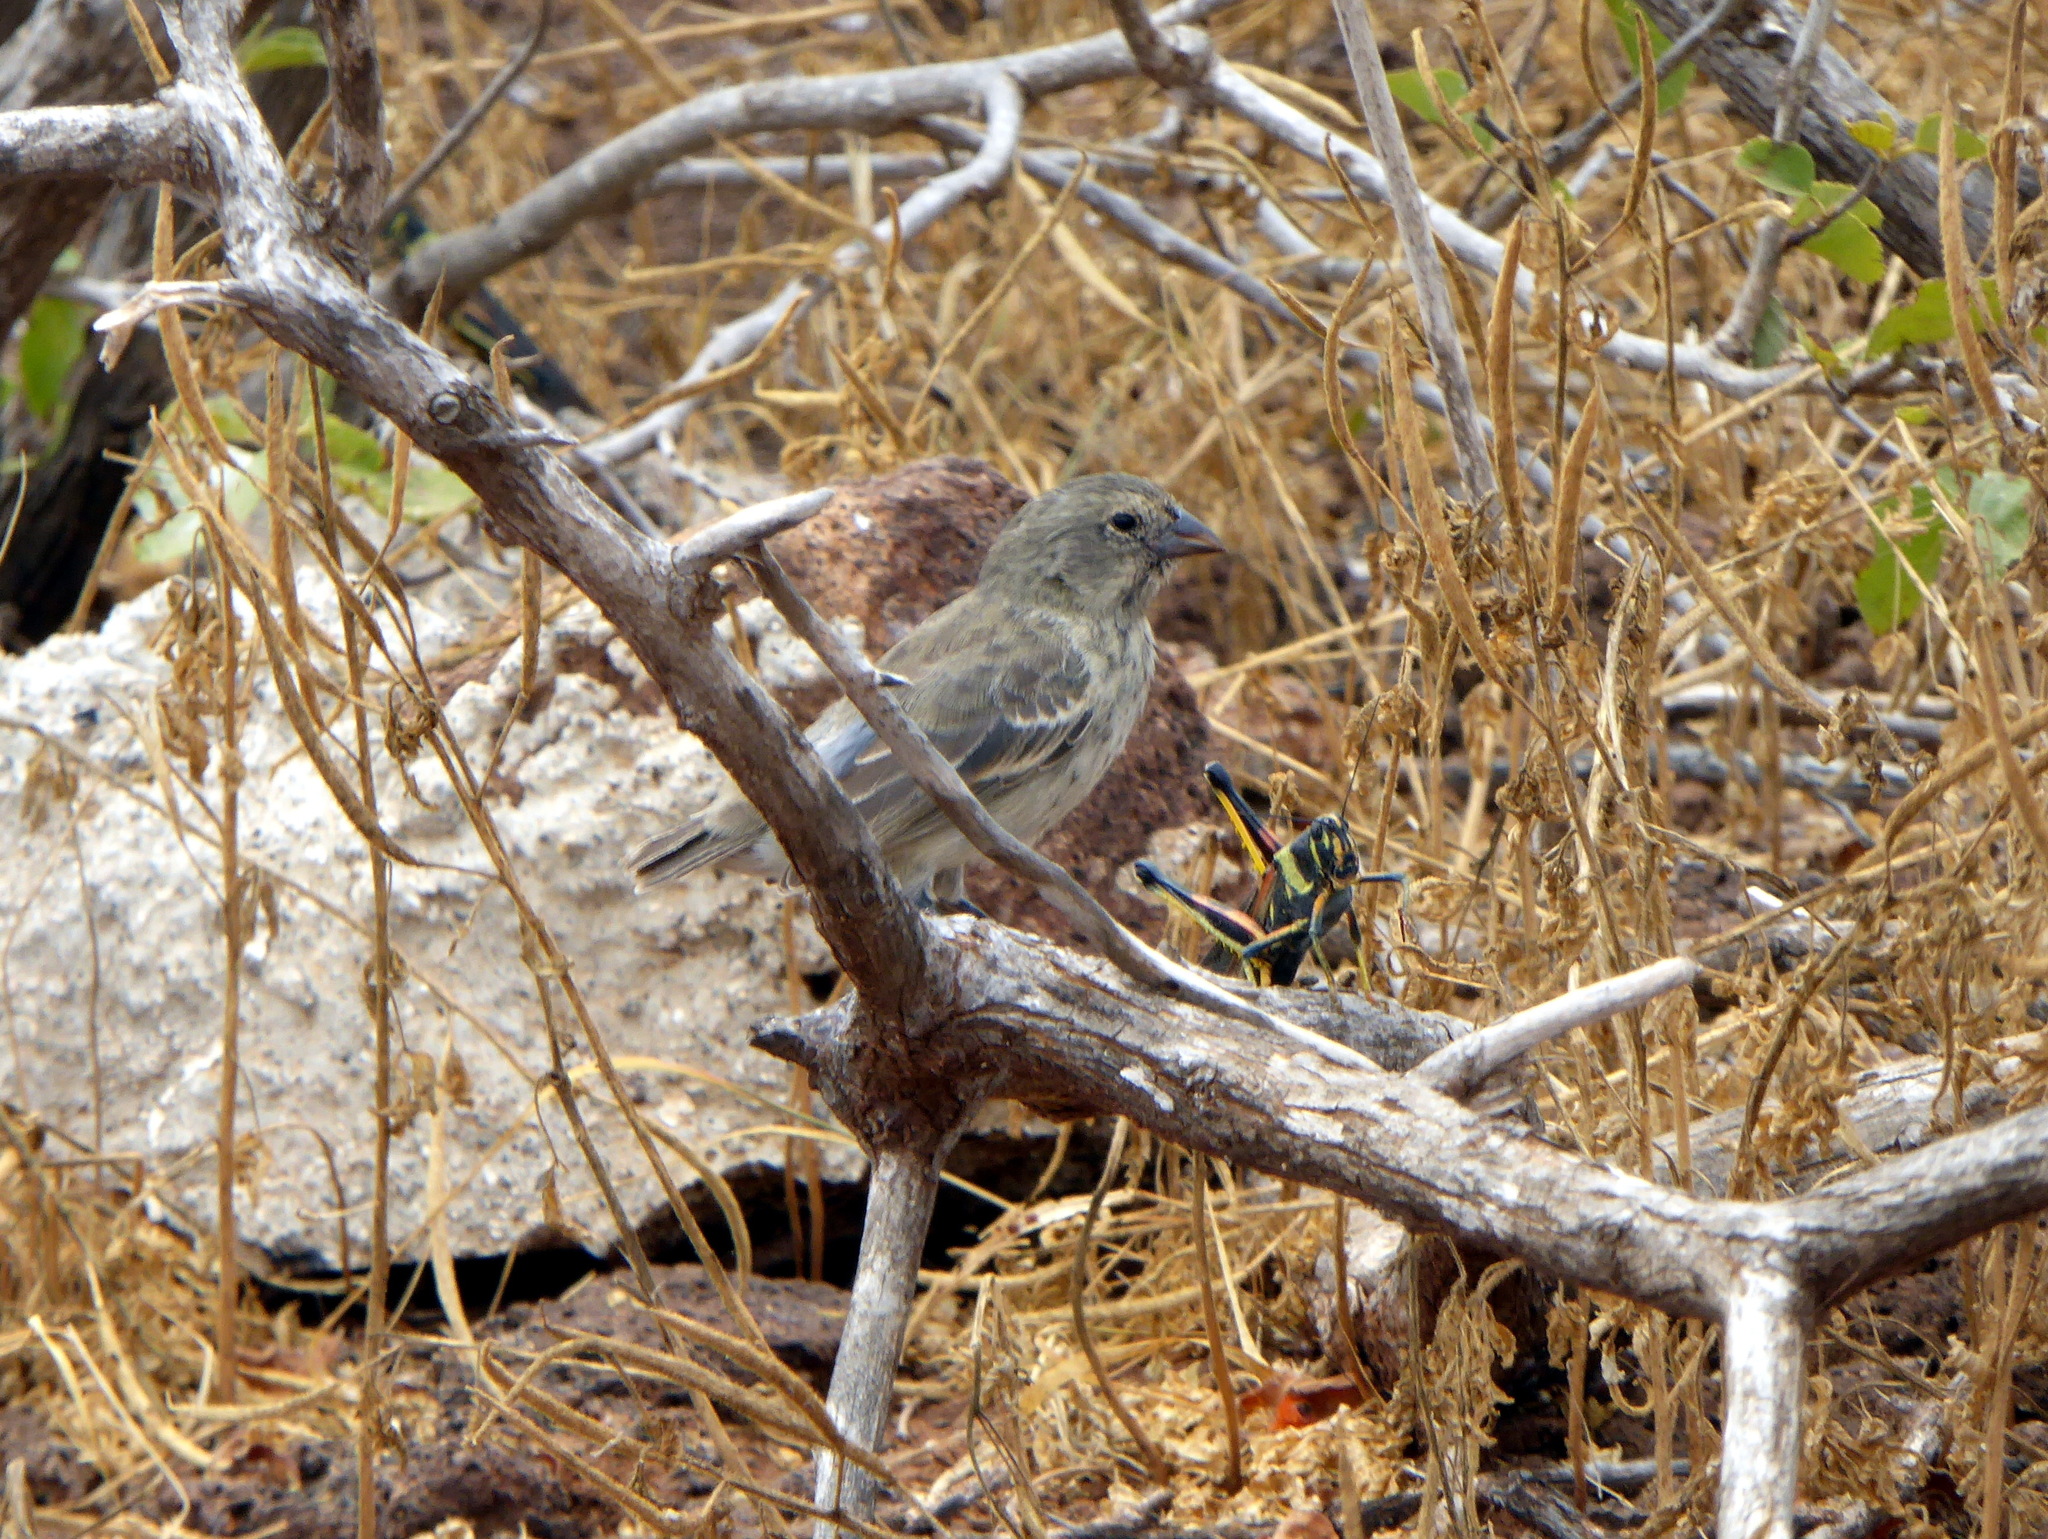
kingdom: Animalia
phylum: Chordata
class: Aves
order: Passeriformes
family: Thraupidae
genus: Geospiza
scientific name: Geospiza fuliginosa
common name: Small ground finch
